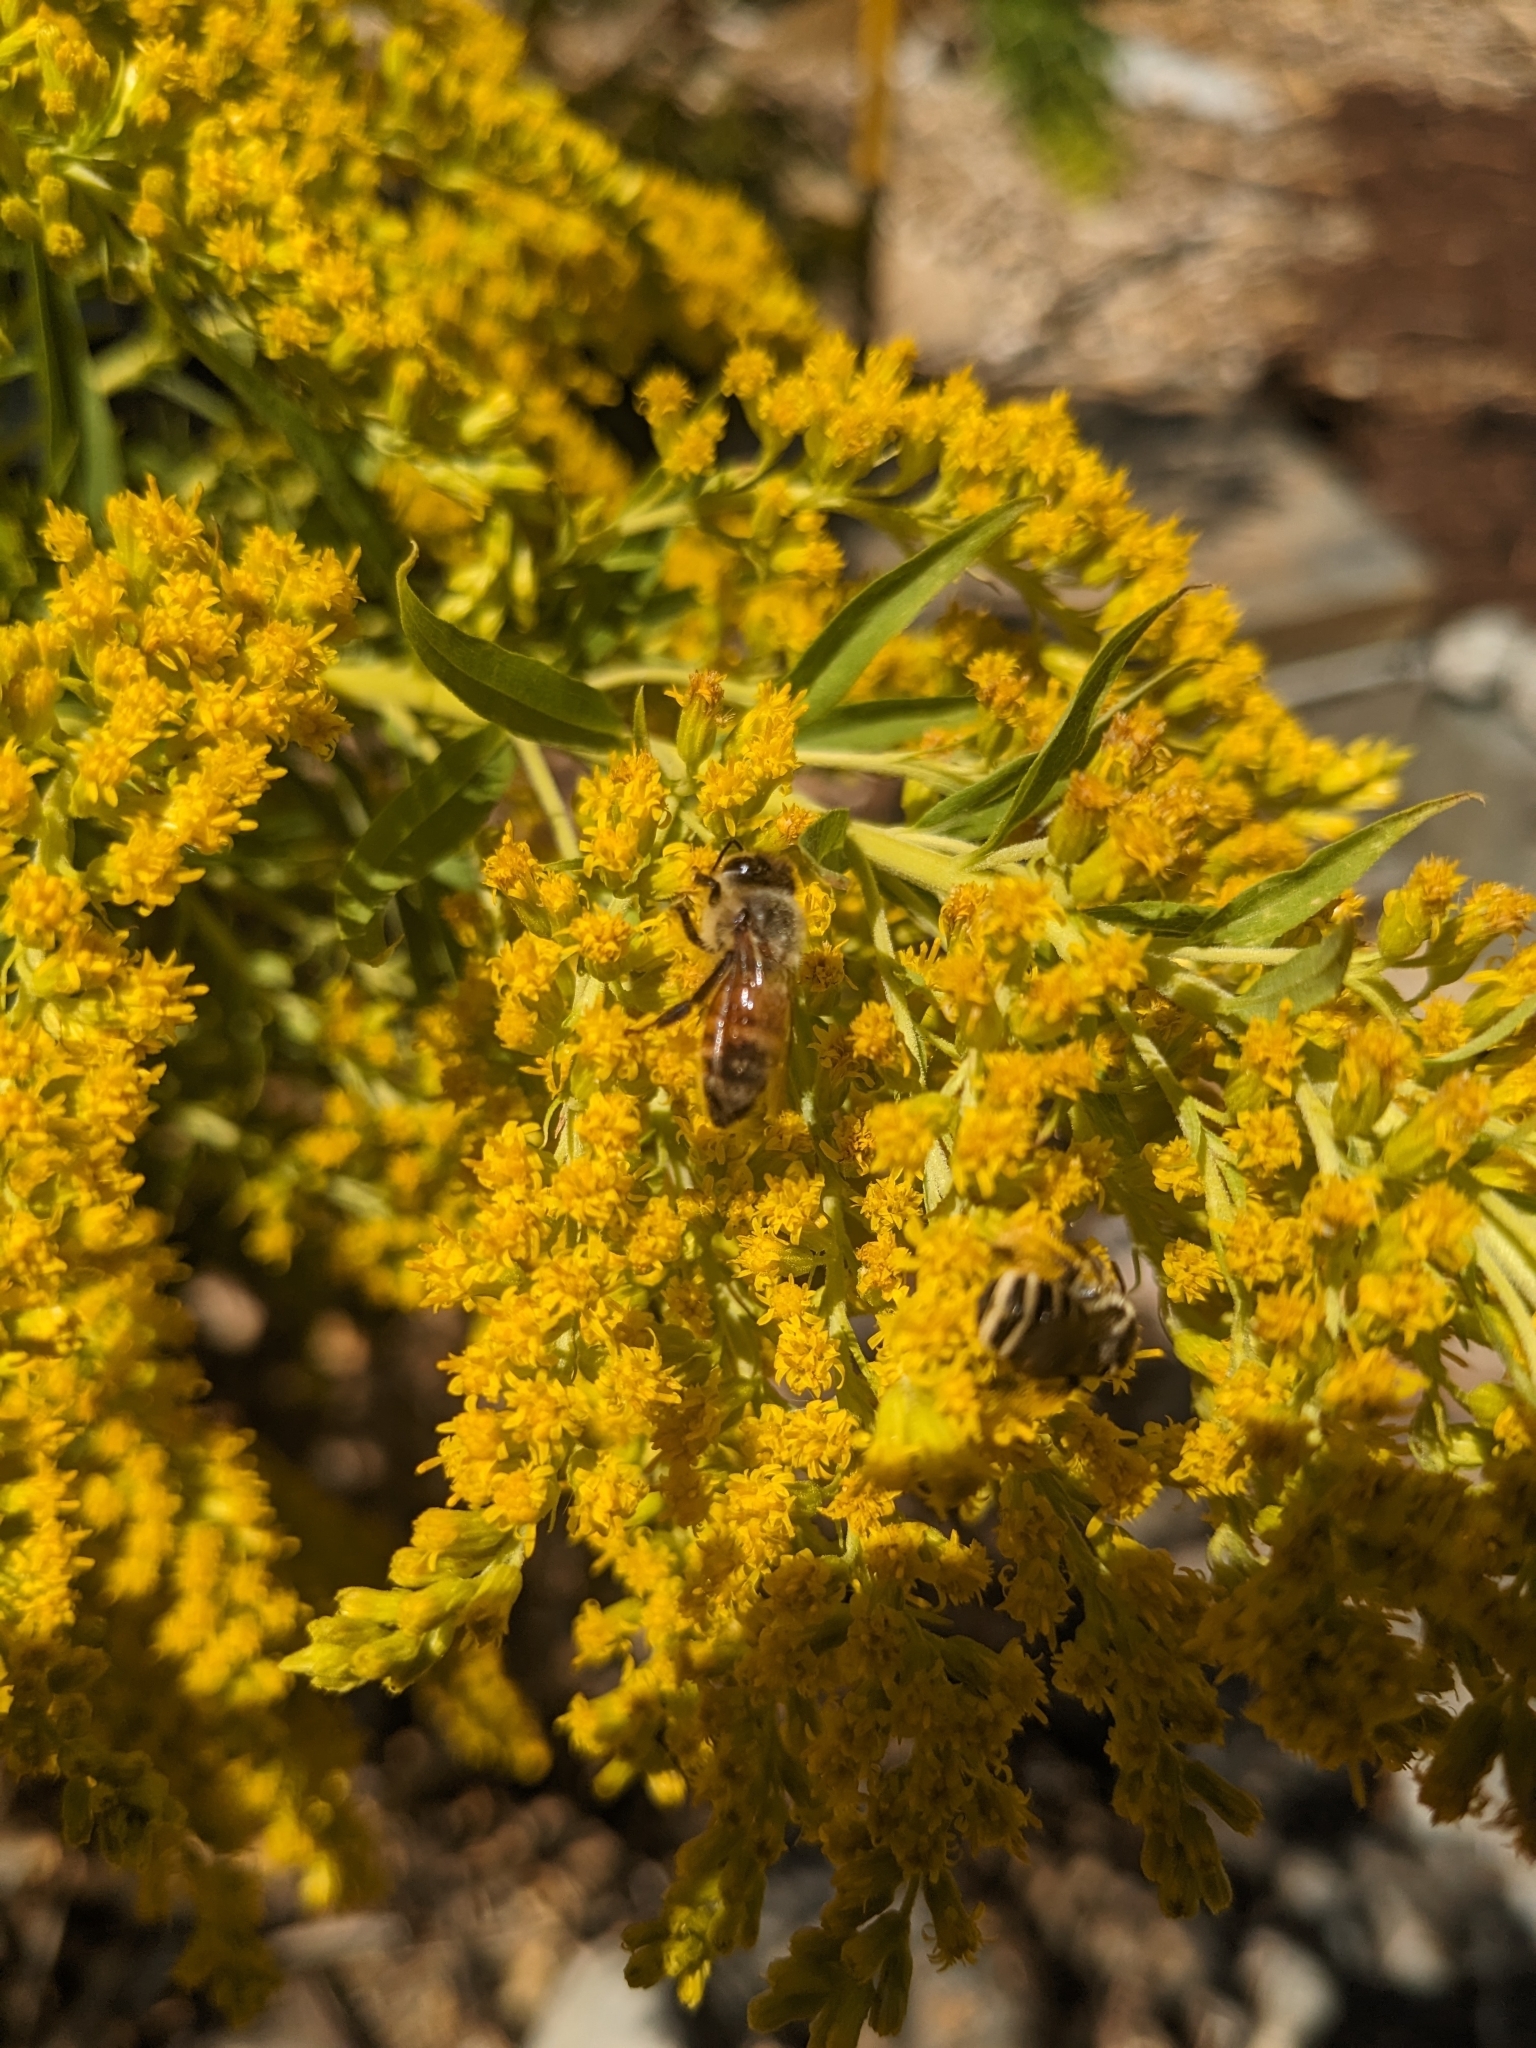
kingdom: Animalia
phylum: Arthropoda
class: Insecta
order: Hymenoptera
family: Apidae
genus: Apis
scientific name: Apis mellifera
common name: Honey bee
